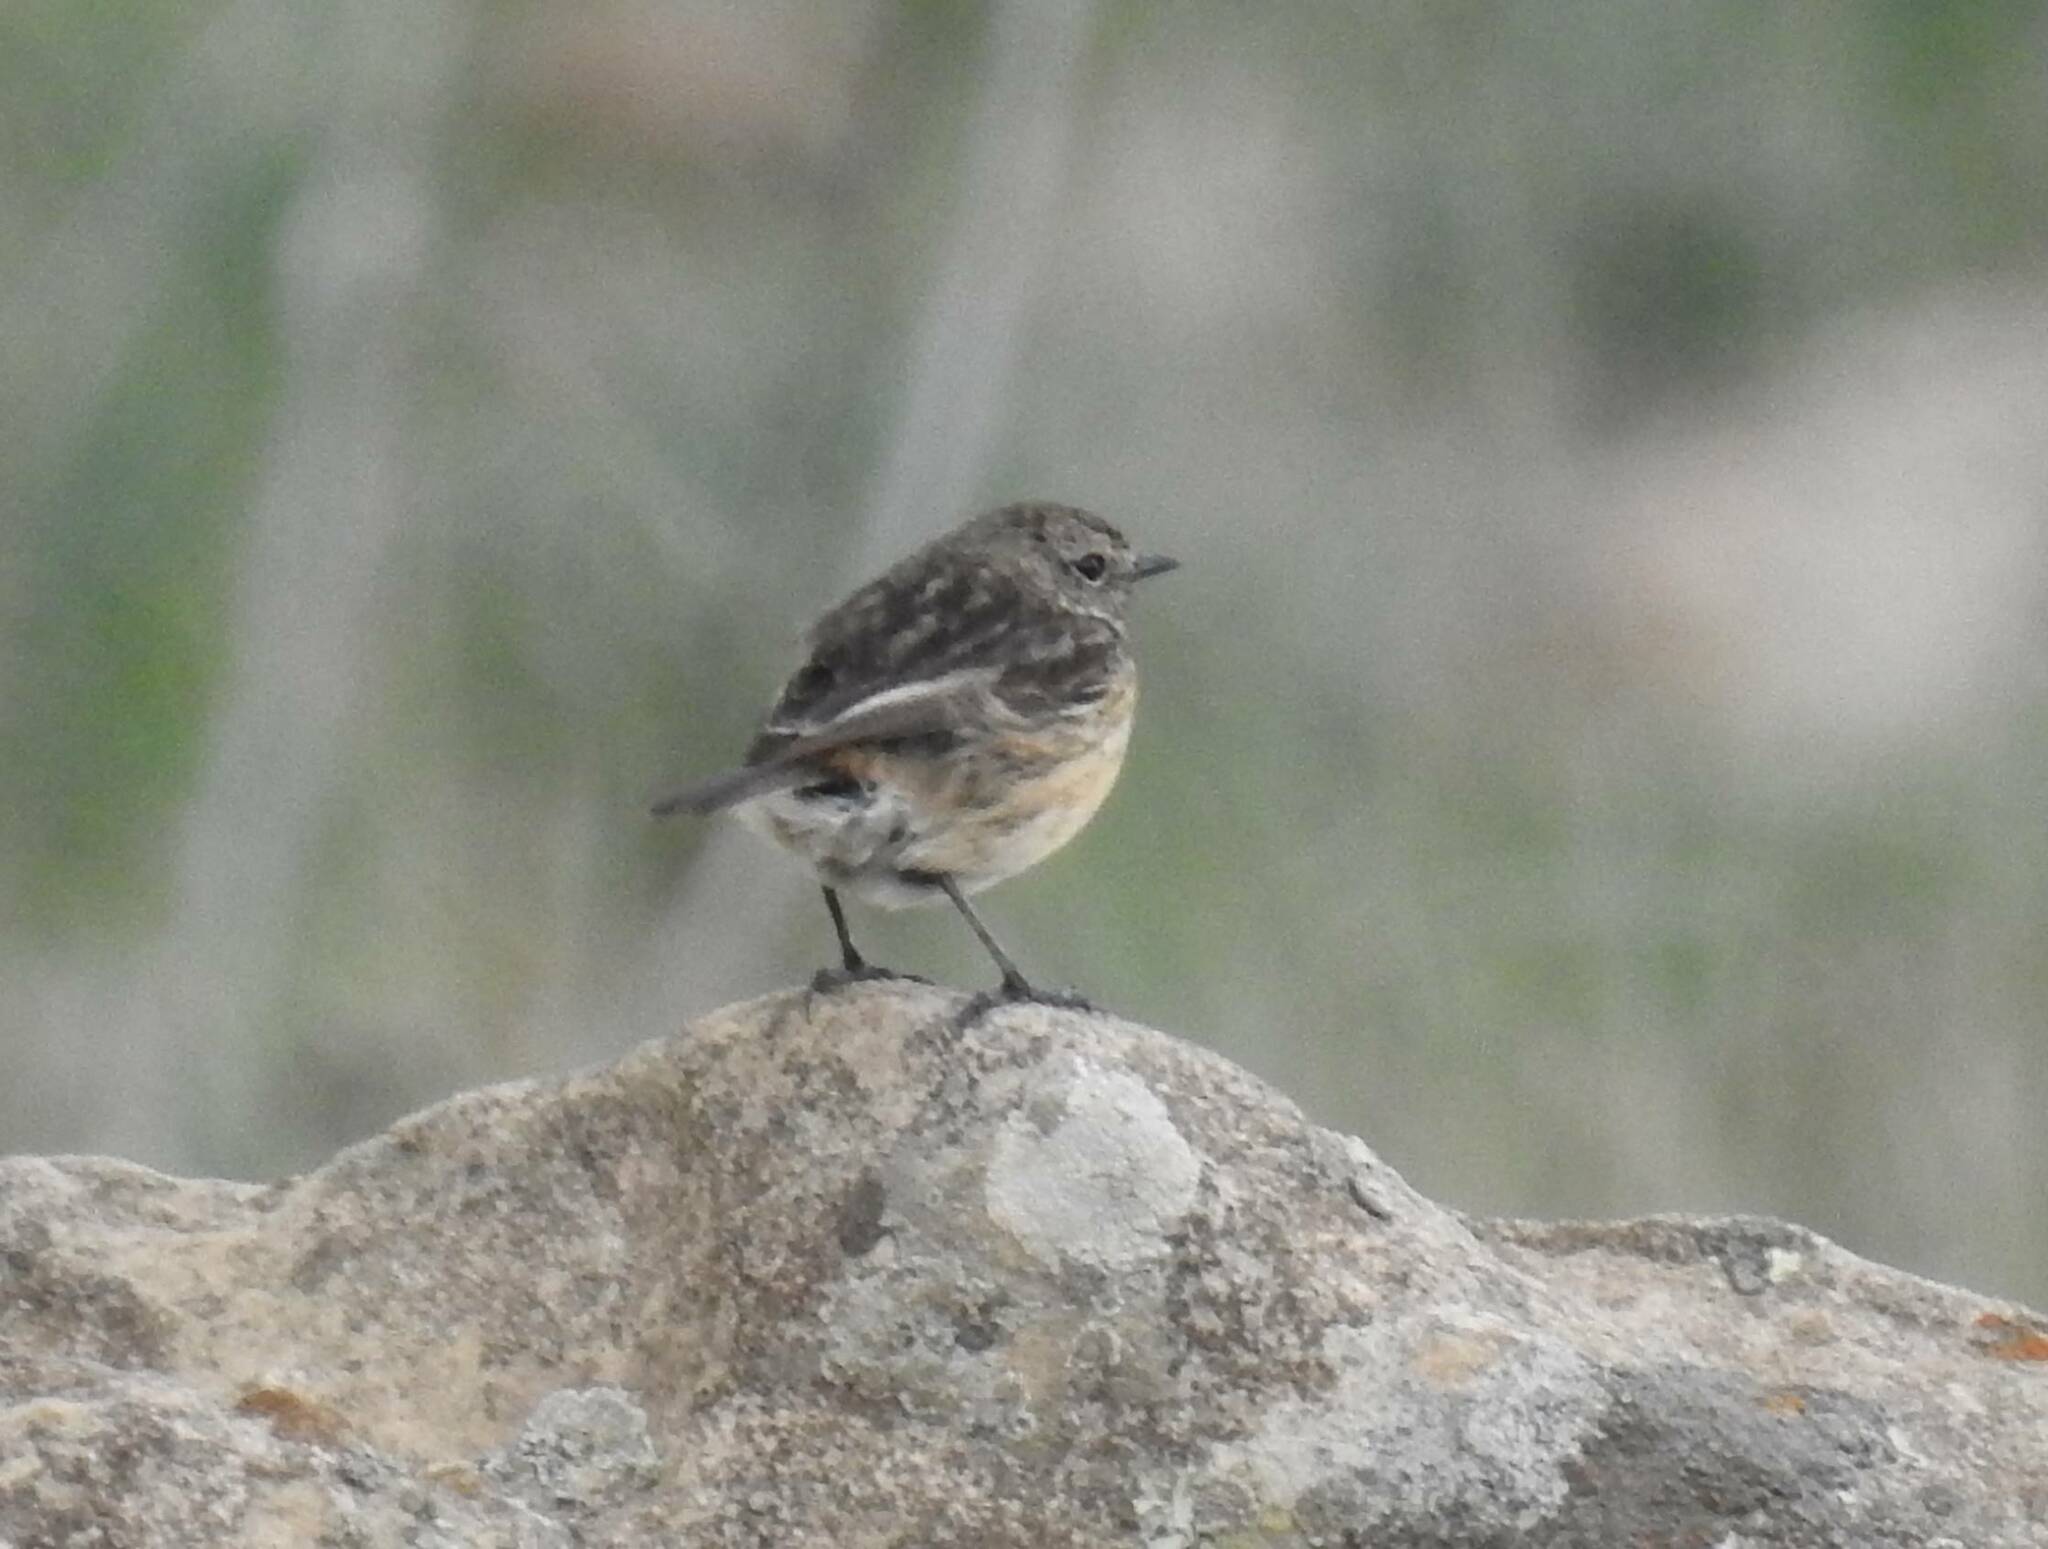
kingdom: Animalia
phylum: Chordata
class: Aves
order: Passeriformes
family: Muscicapidae
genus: Saxicola
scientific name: Saxicola rubicola
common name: European stonechat
